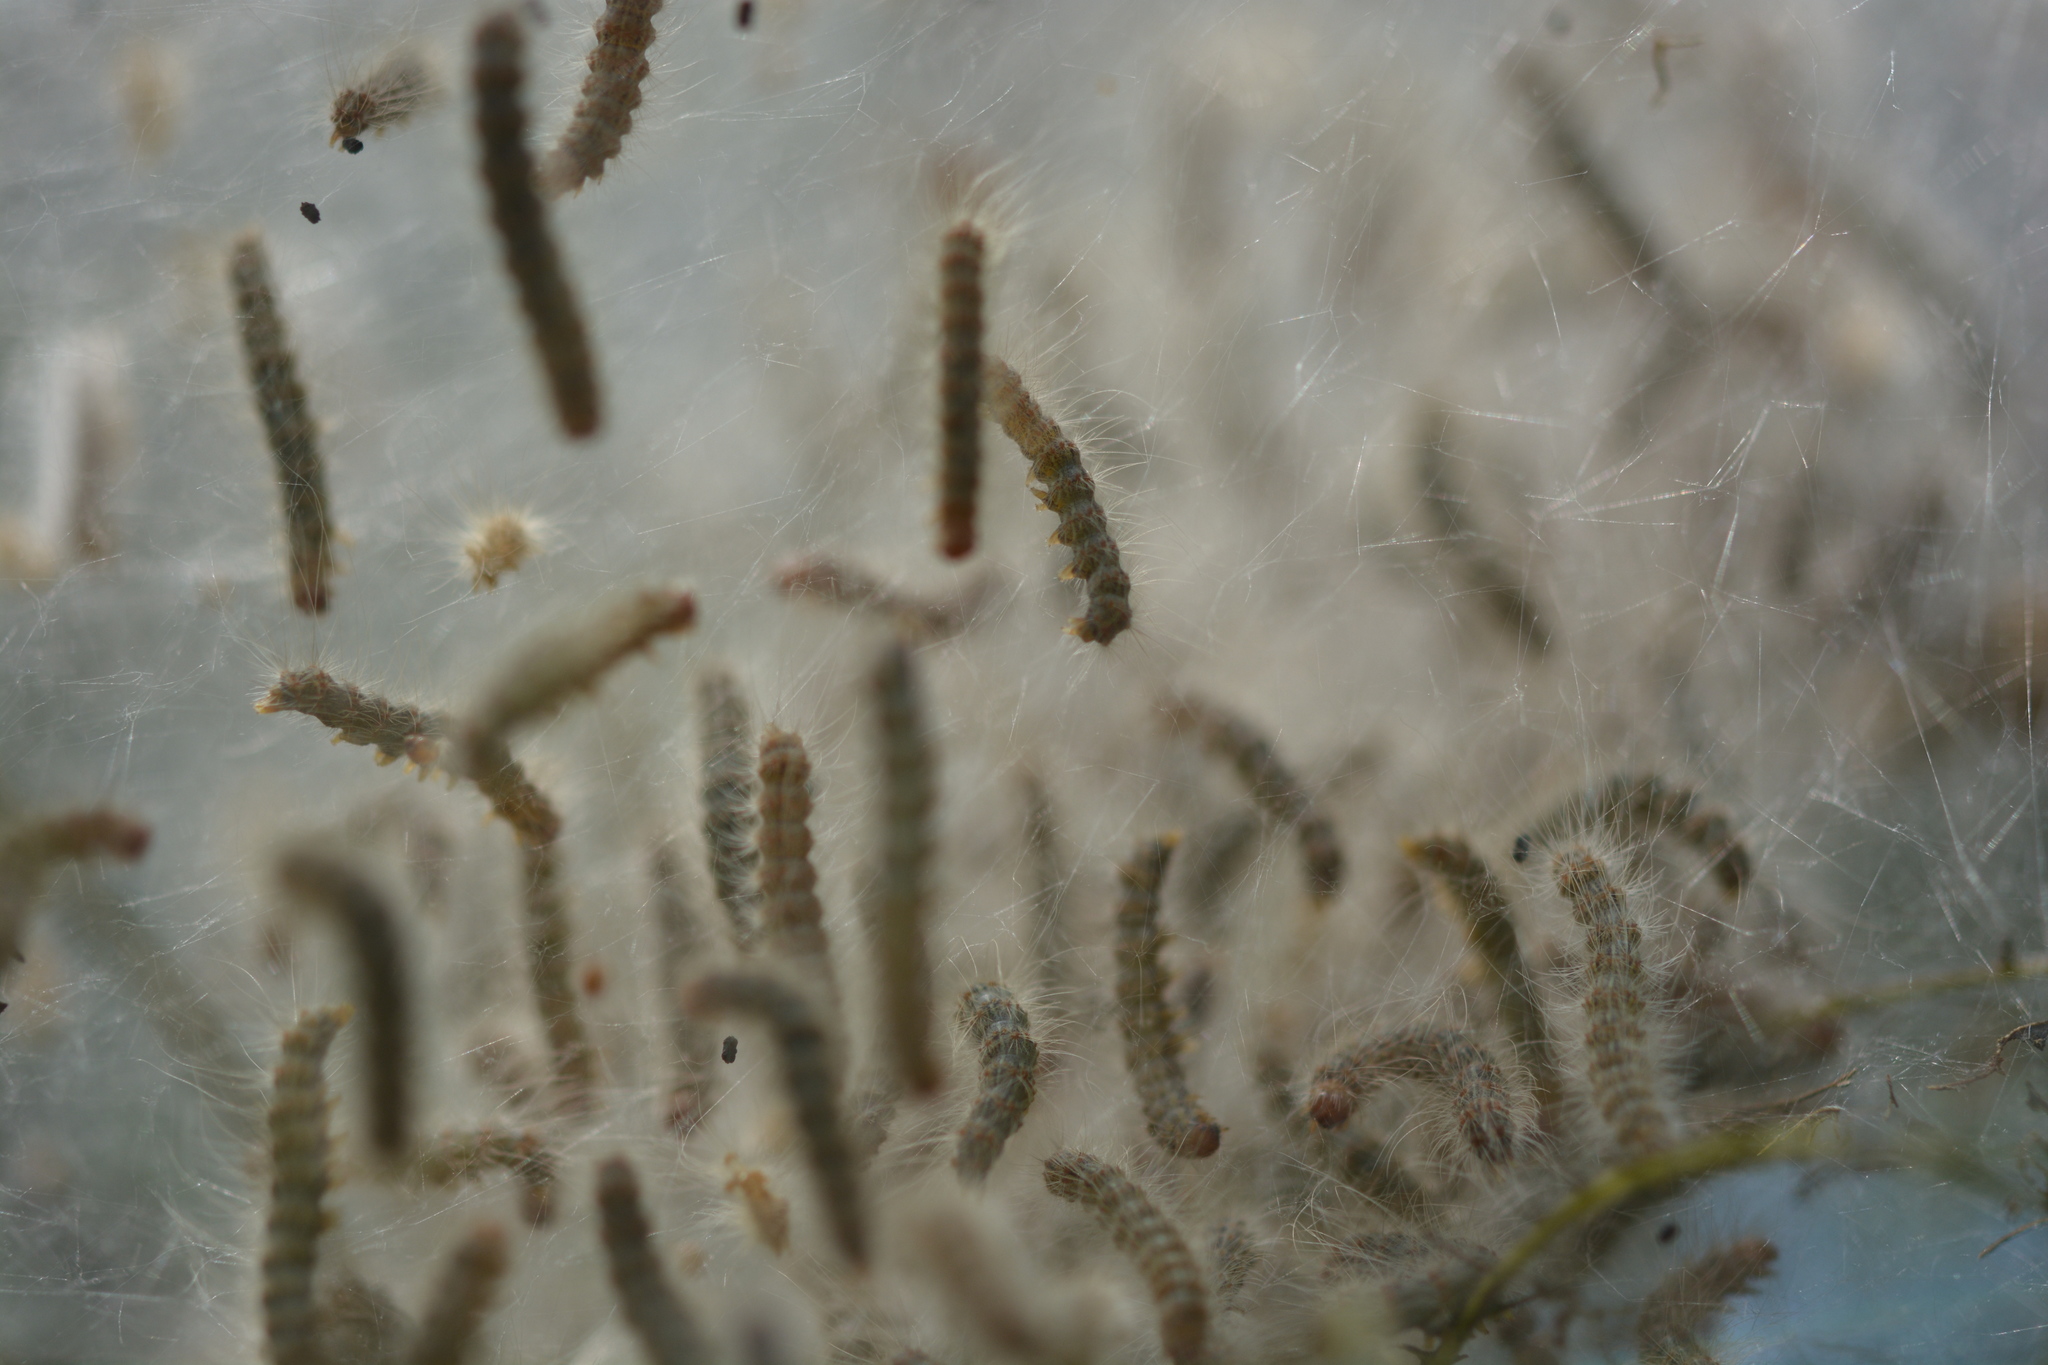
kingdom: Animalia
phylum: Arthropoda
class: Insecta
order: Lepidoptera
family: Erebidae
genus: Hyphantria
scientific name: Hyphantria cunea
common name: American white moth
